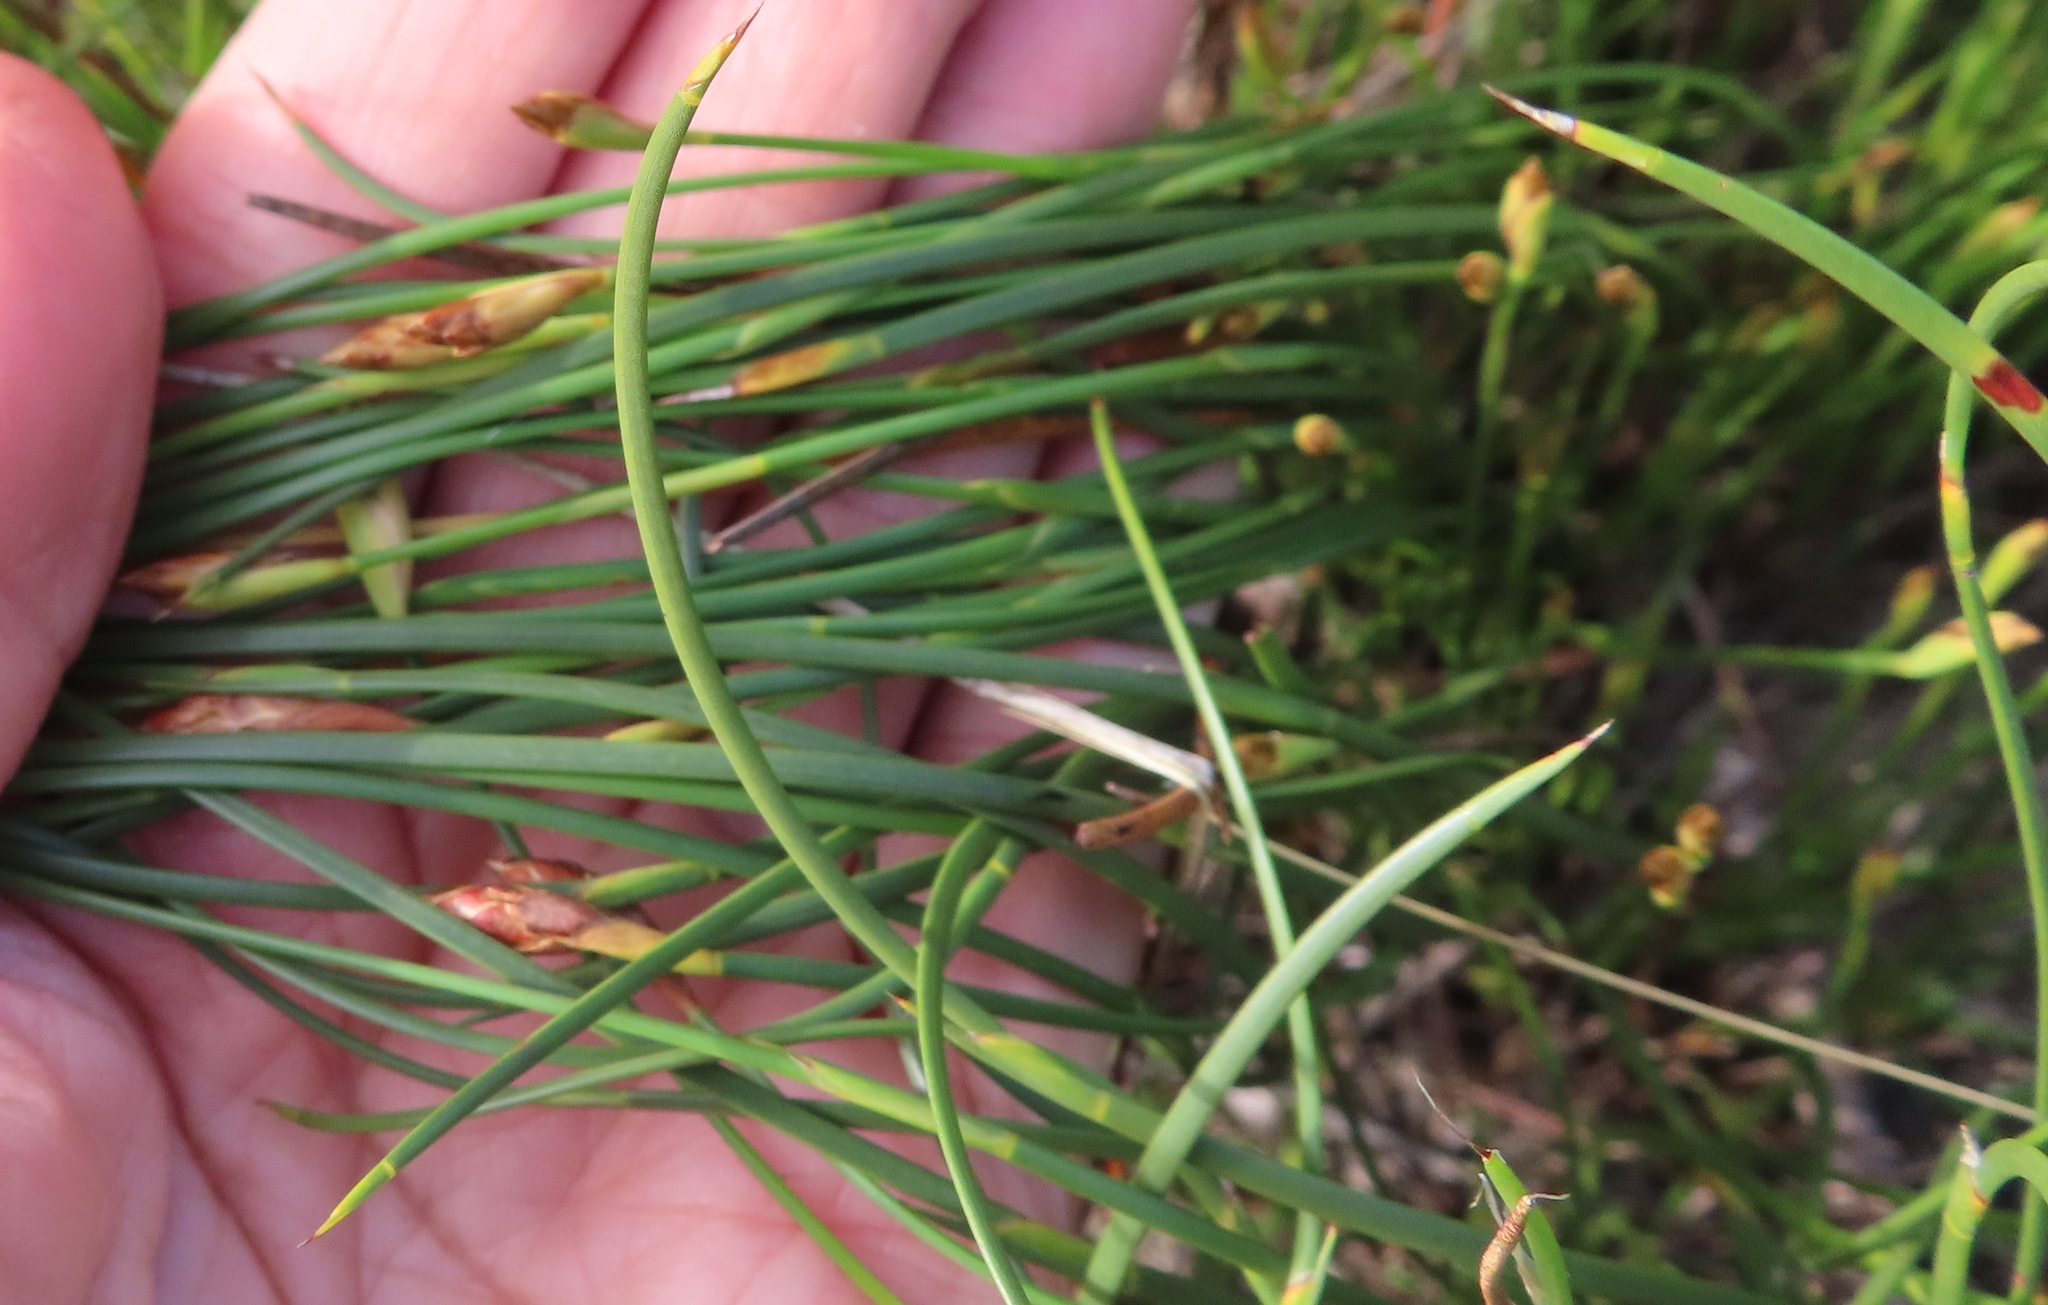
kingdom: Plantae
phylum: Tracheophyta
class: Liliopsida
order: Poales
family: Restionaceae
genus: Hypodiscus
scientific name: Hypodiscus willdenowia
